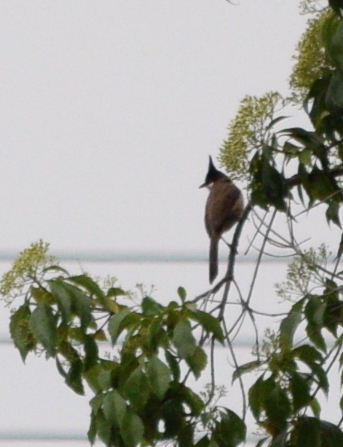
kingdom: Animalia
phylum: Chordata
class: Aves
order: Passeriformes
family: Pycnonotidae
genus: Pycnonotus
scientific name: Pycnonotus jocosus
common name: Red-whiskered bulbul
